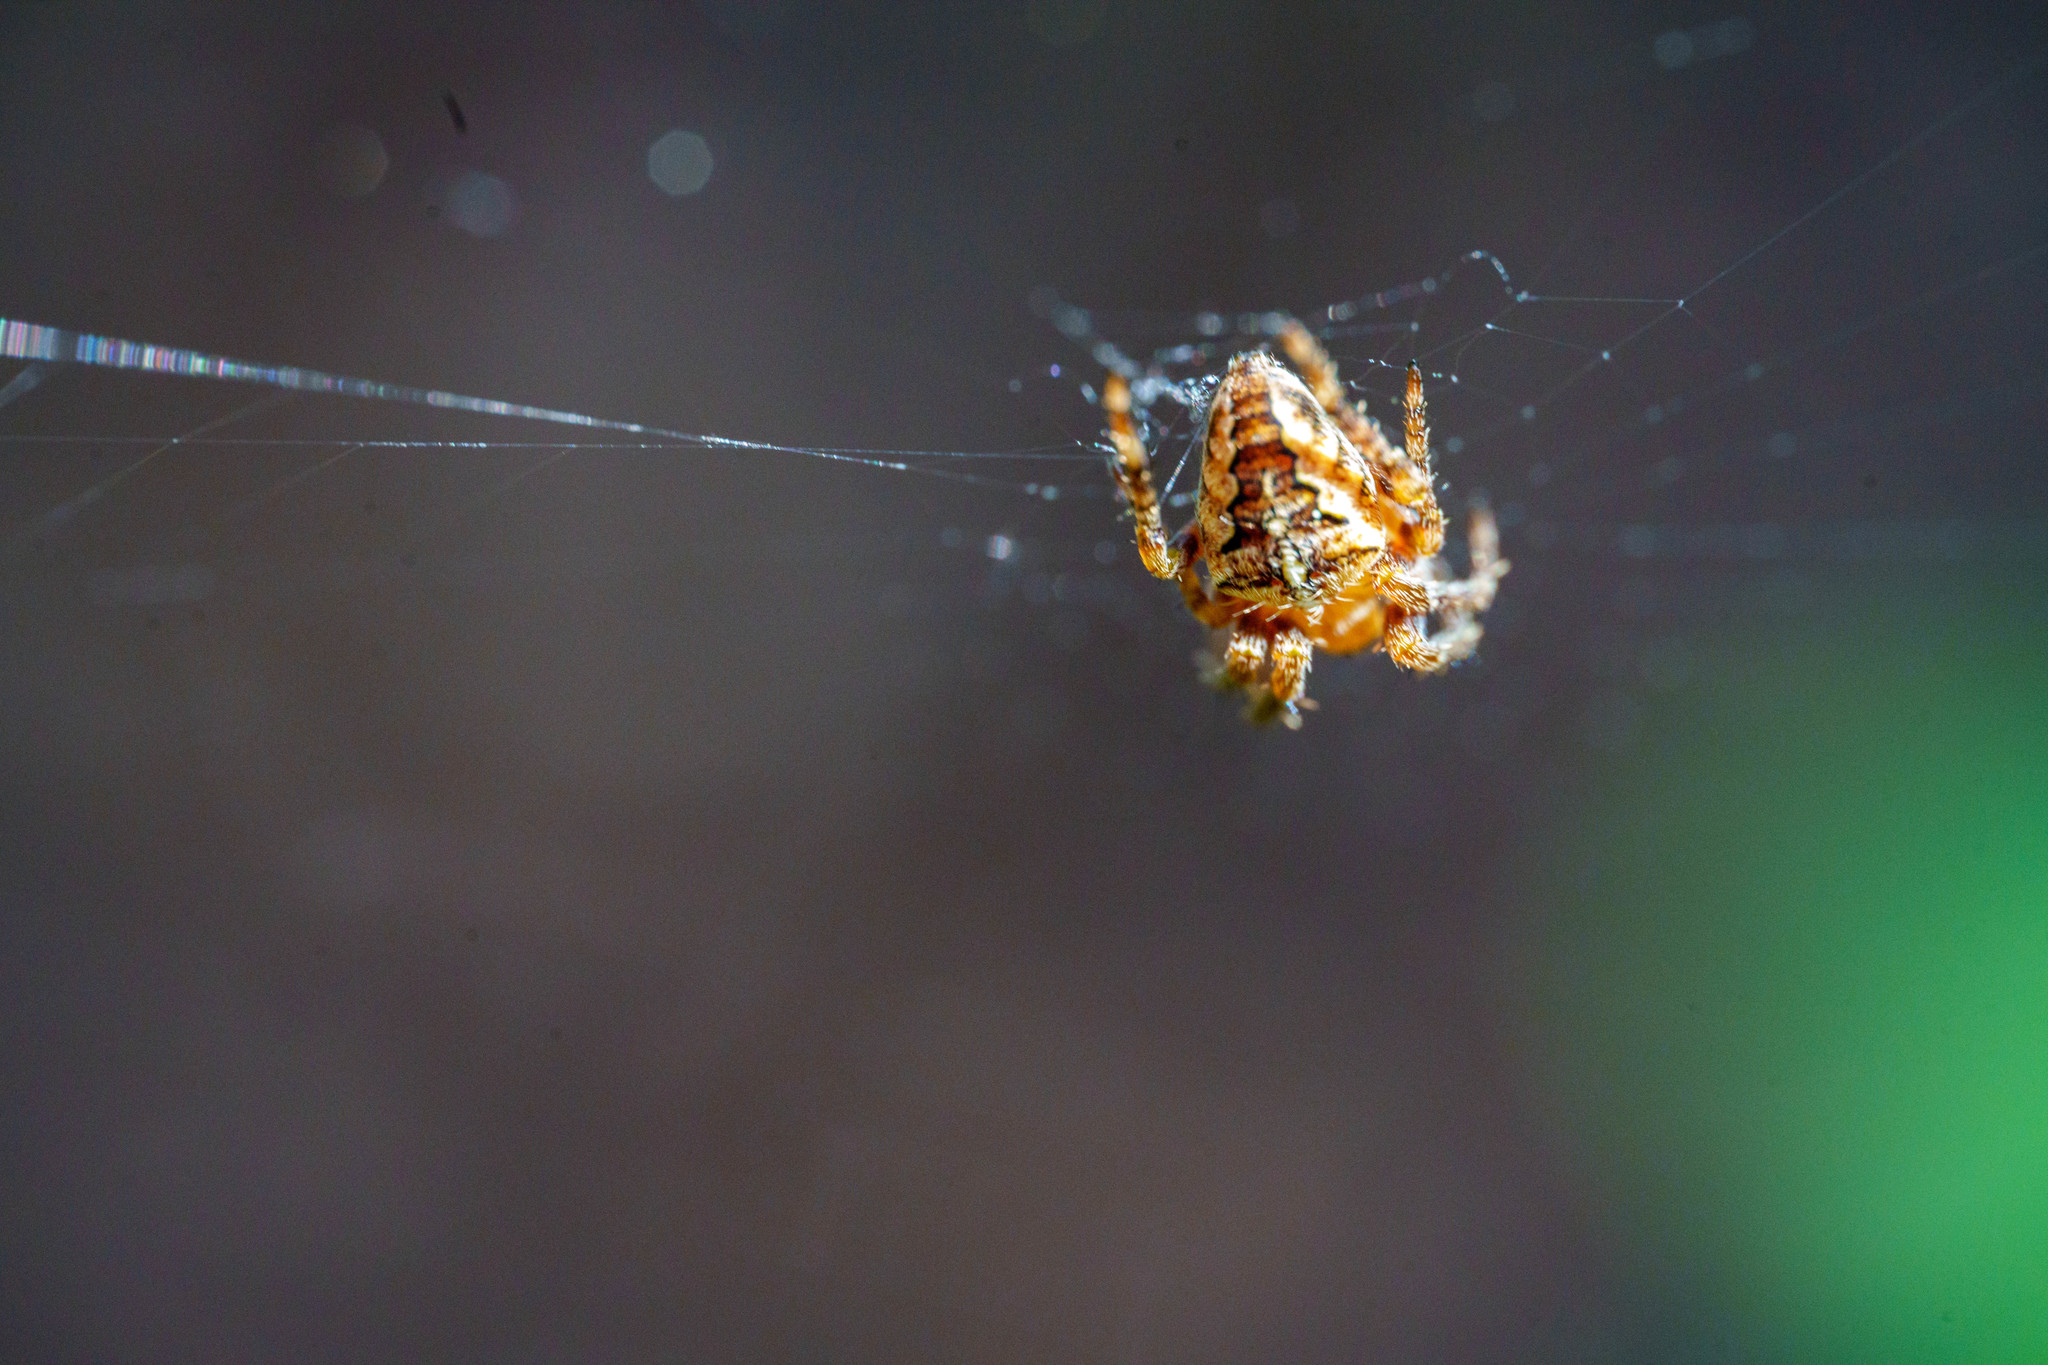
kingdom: Animalia
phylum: Arthropoda
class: Arachnida
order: Araneae
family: Araneidae
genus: Araneus
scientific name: Araneus diadematus
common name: Cross orbweaver
